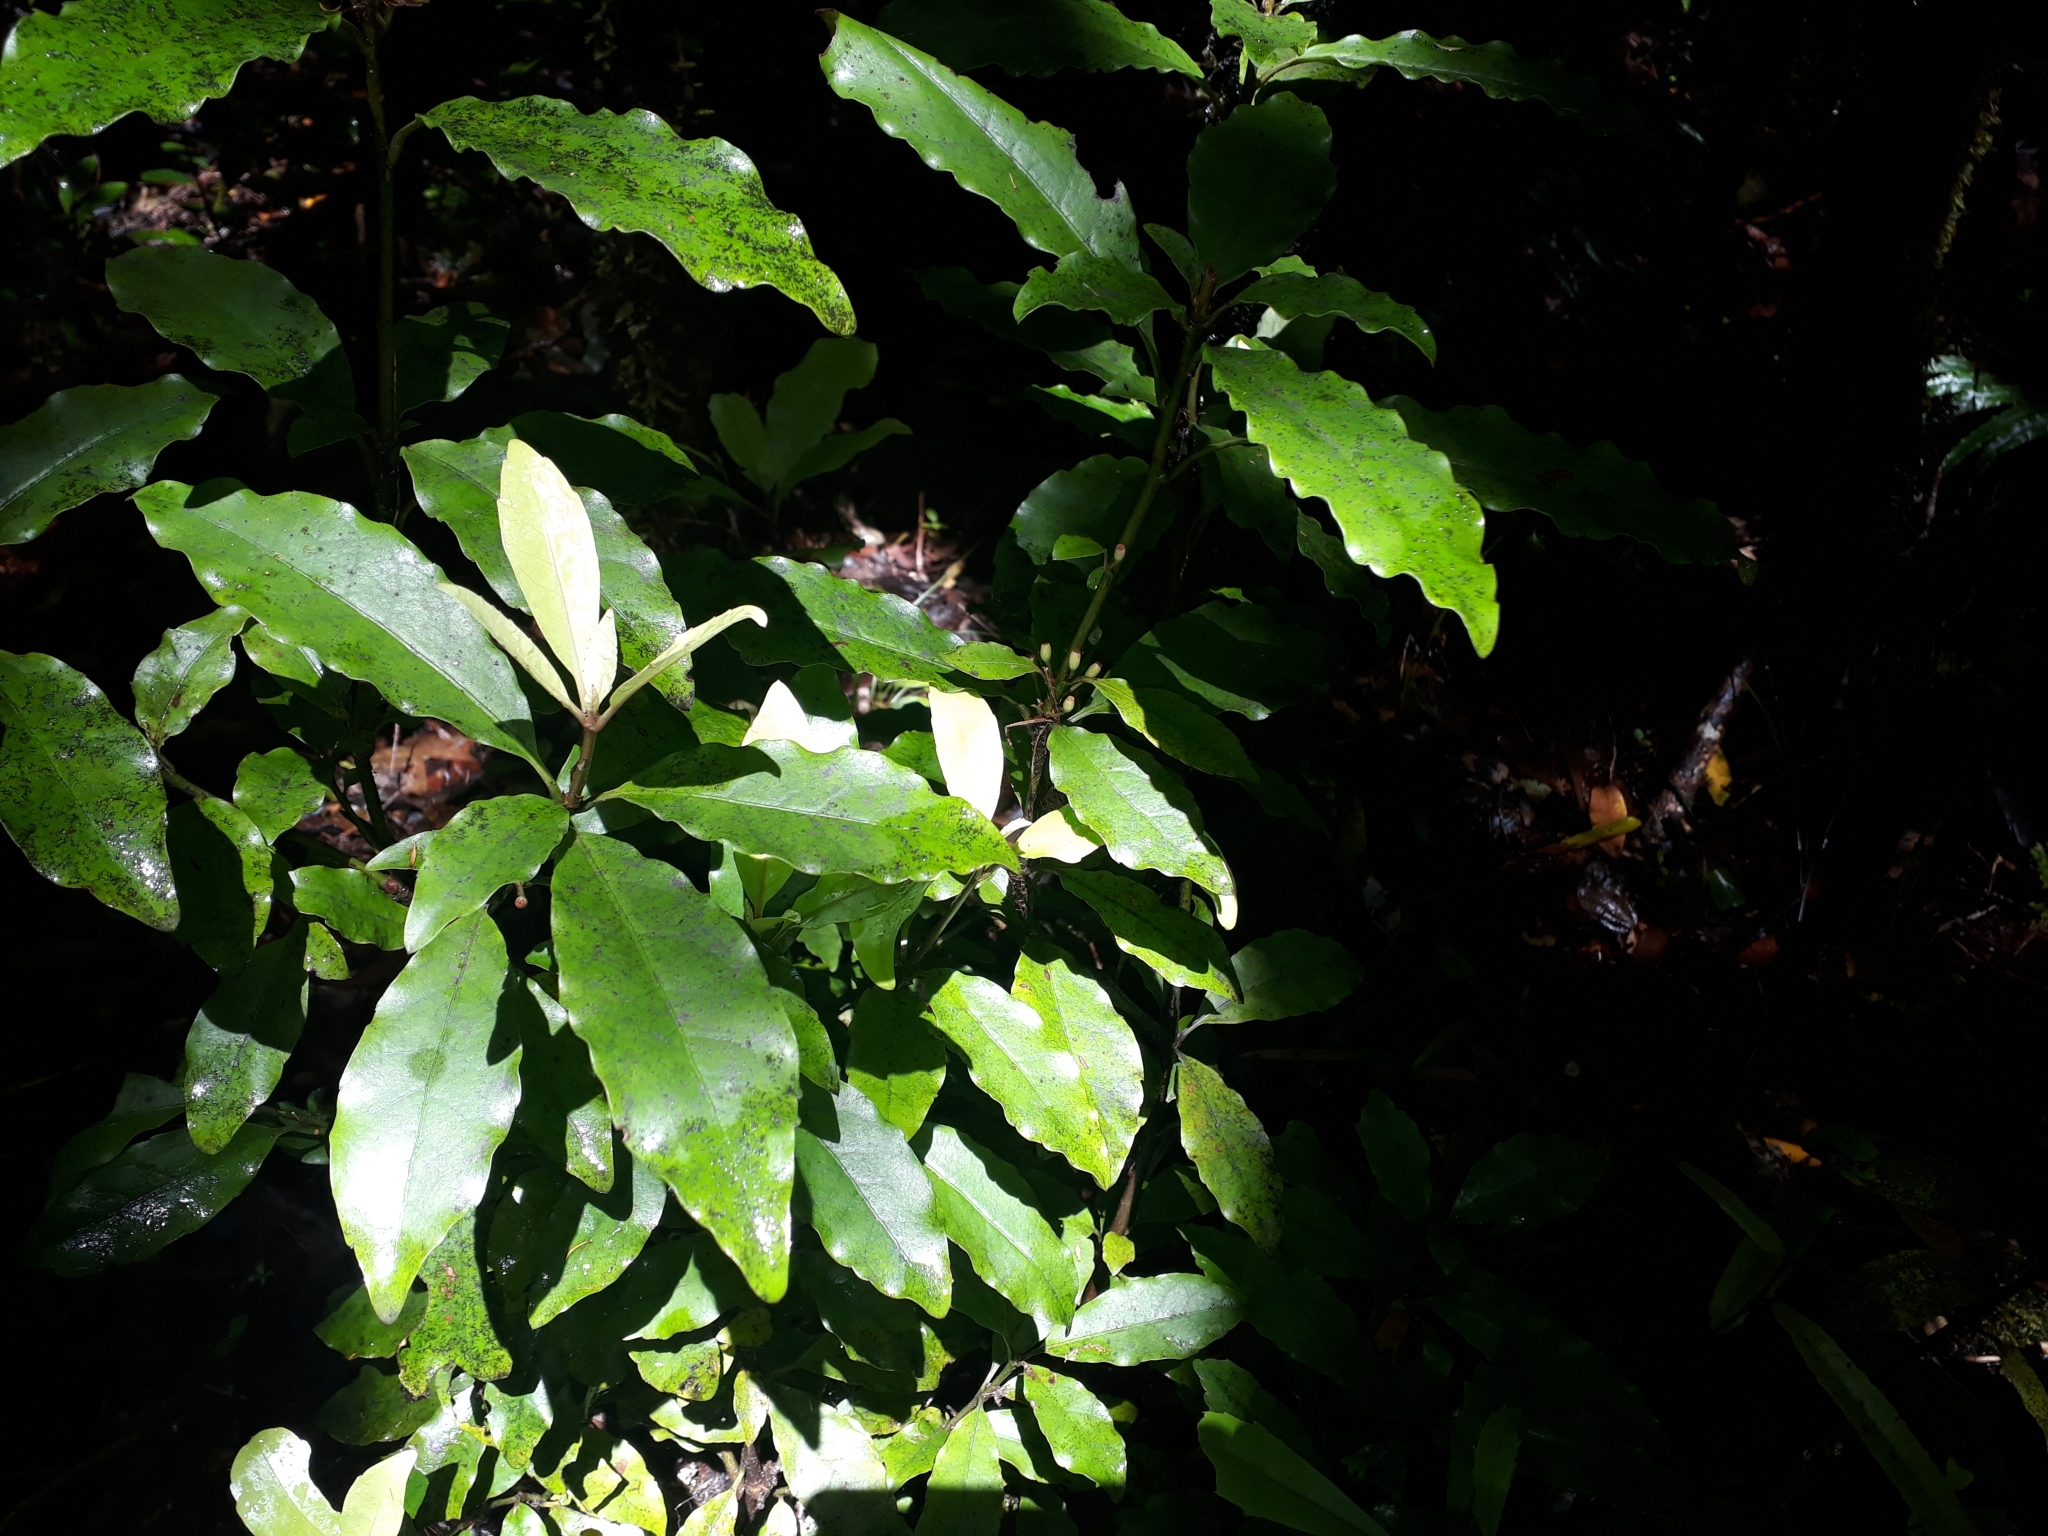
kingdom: Plantae
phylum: Tracheophyta
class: Magnoliopsida
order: Asterales
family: Alseuosmiaceae
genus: Alseuosmia
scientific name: Alseuosmia macrophylla
